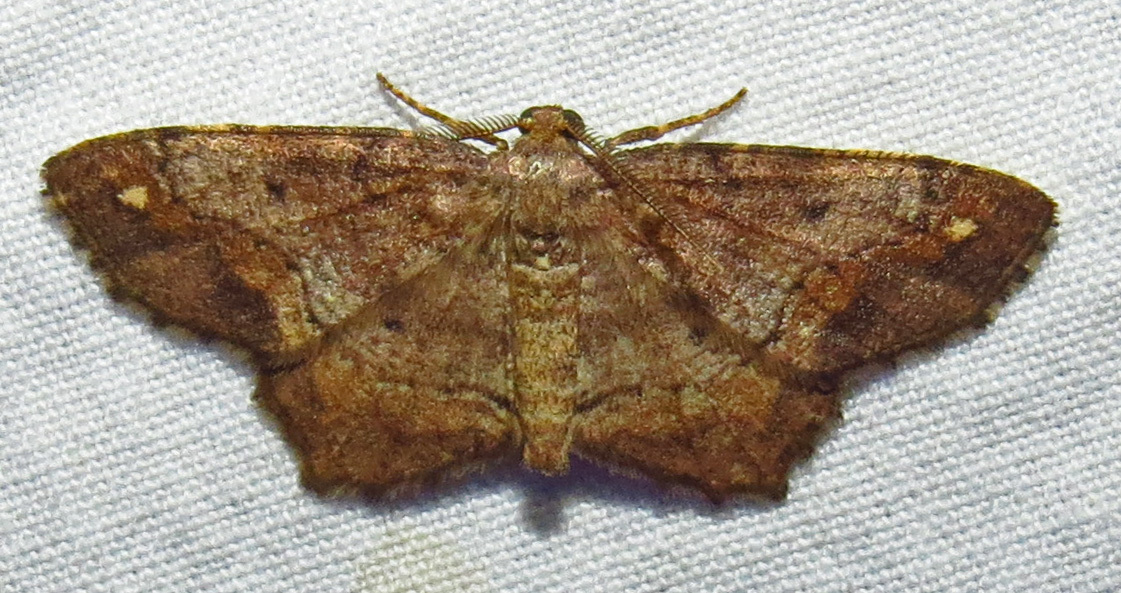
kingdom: Animalia
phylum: Arthropoda
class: Insecta
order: Lepidoptera
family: Geometridae
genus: Hypagyrtis
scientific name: Hypagyrtis unipunctata
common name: One-spotted variant
